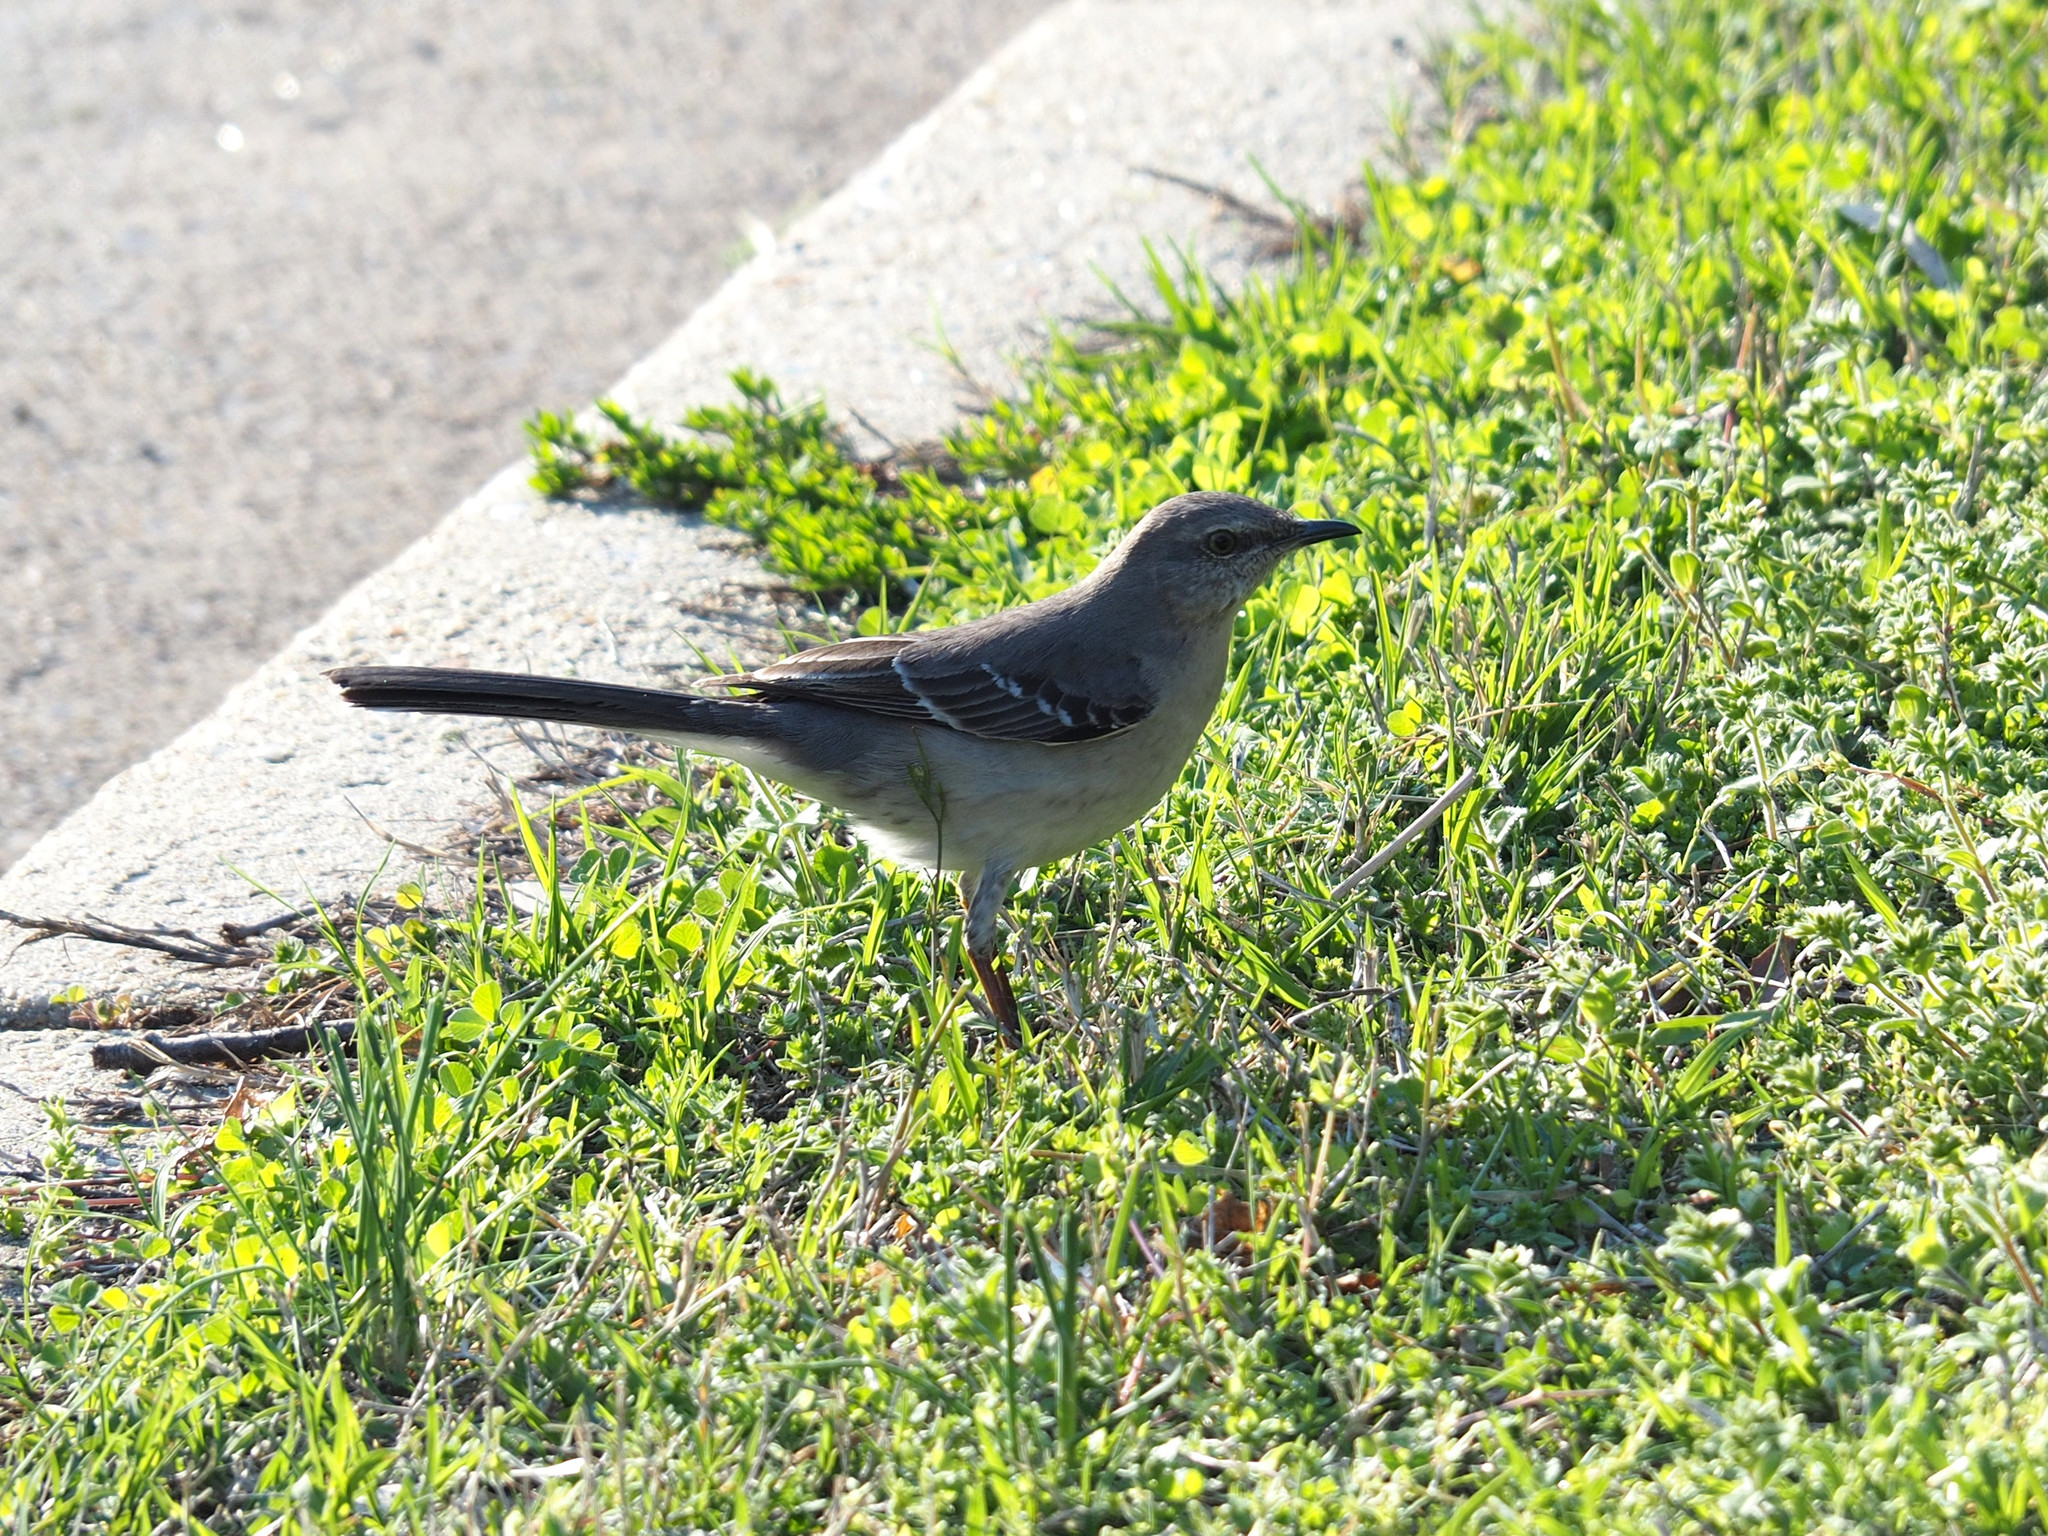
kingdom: Animalia
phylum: Chordata
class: Aves
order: Passeriformes
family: Mimidae
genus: Mimus
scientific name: Mimus polyglottos
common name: Northern mockingbird
